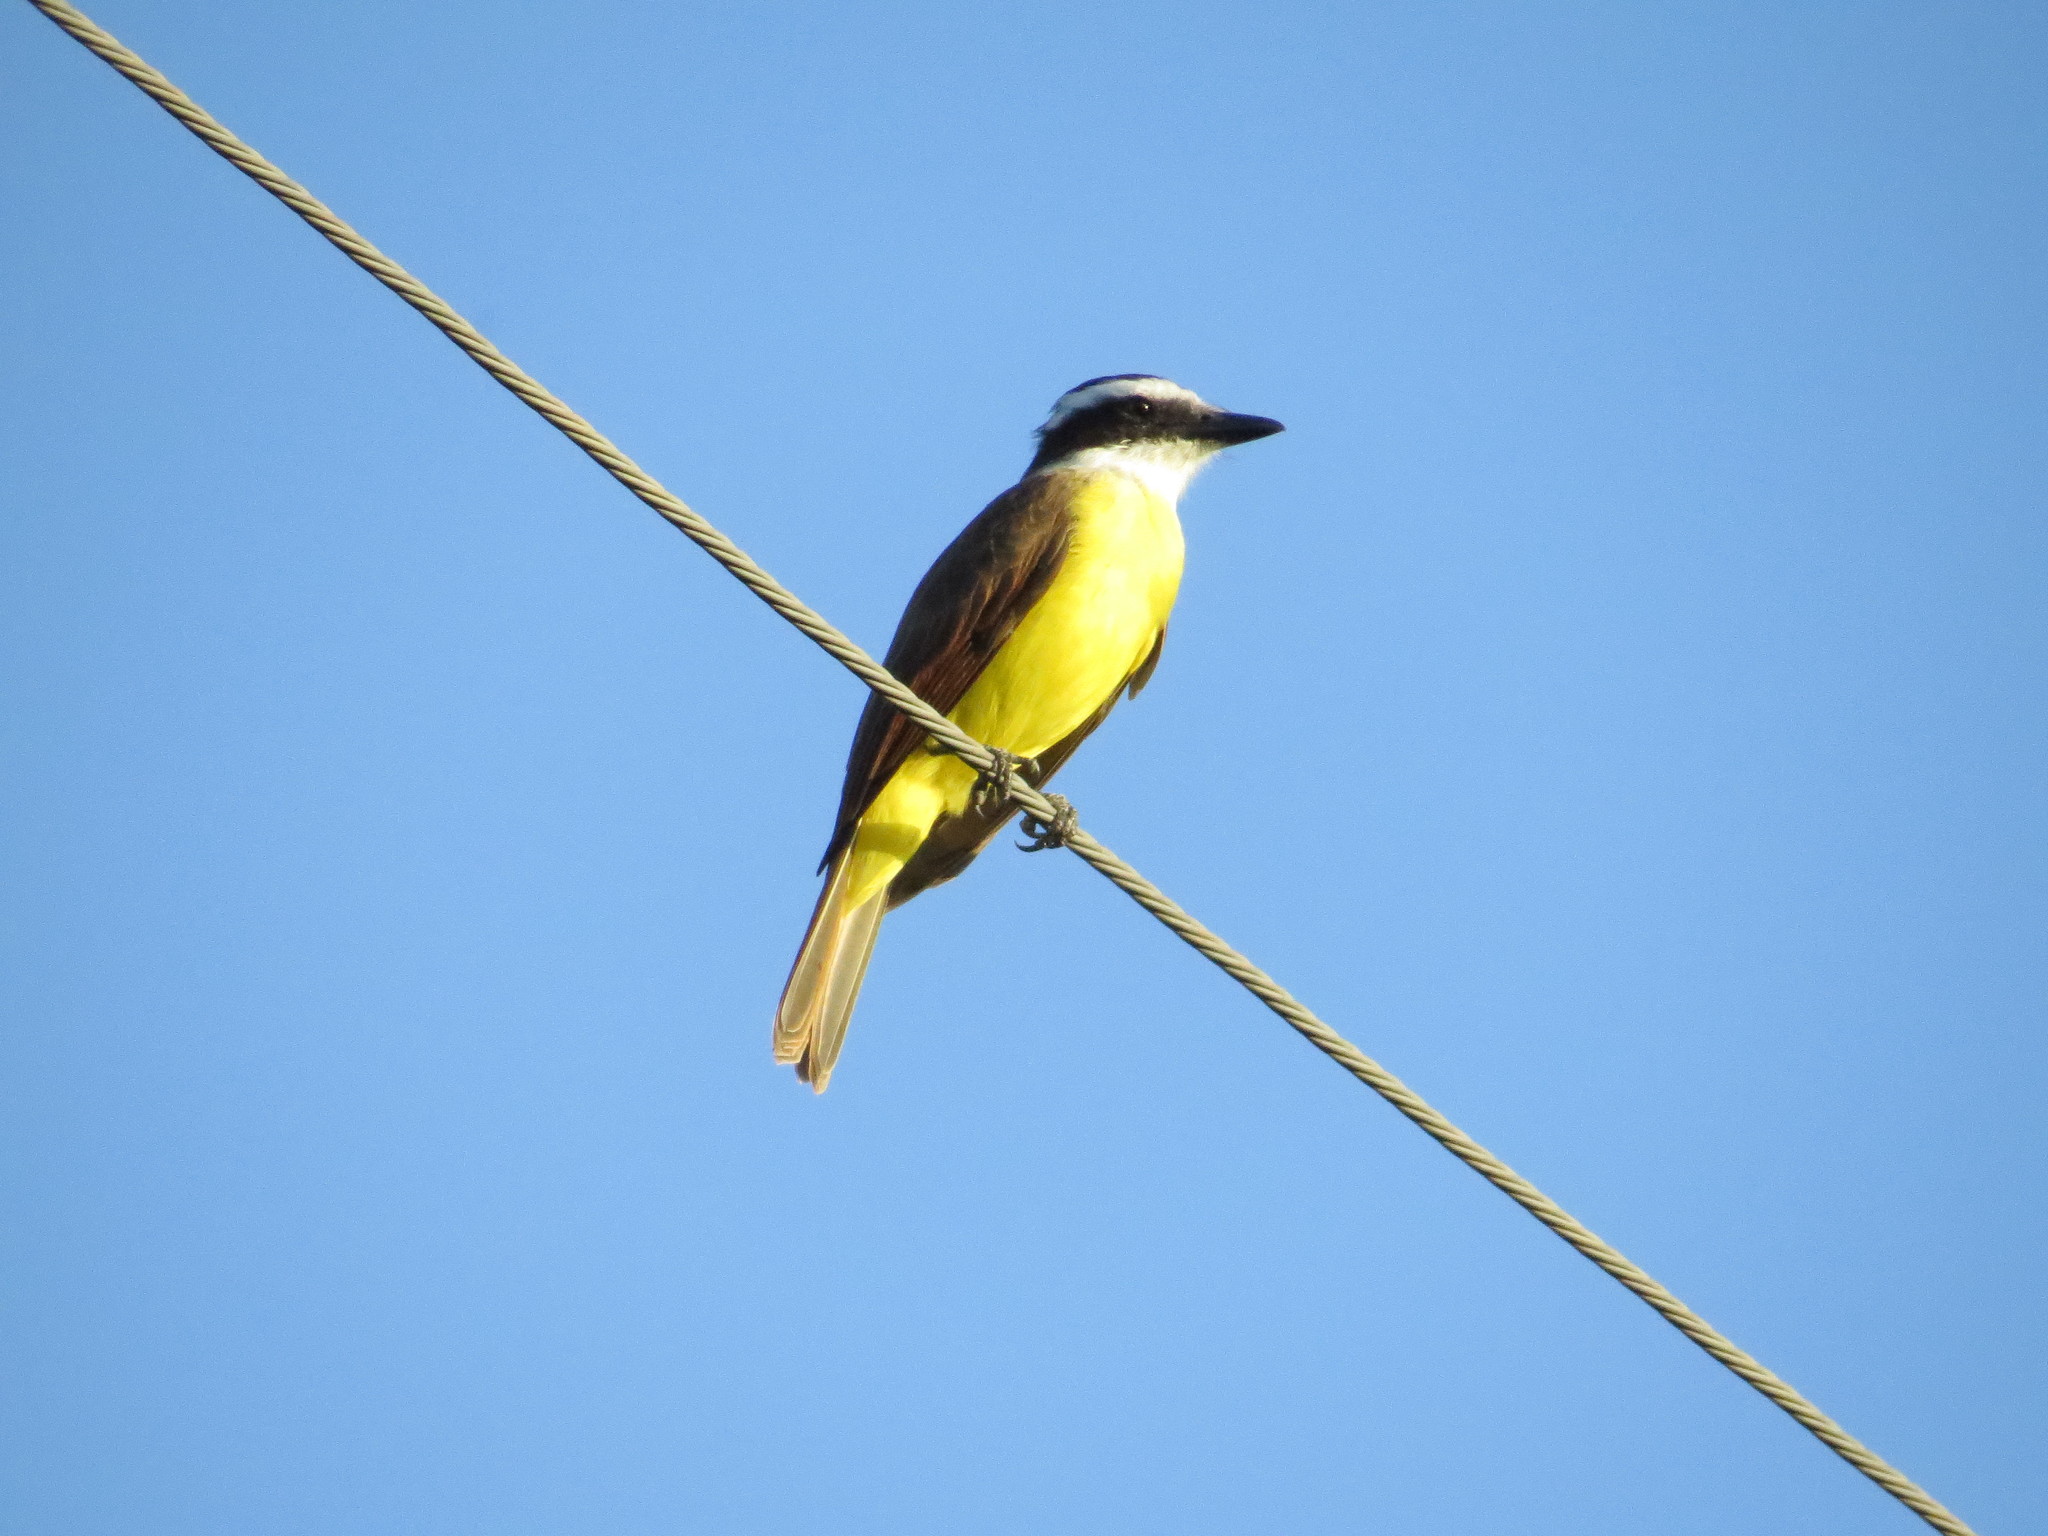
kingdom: Animalia
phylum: Chordata
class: Aves
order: Passeriformes
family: Tyrannidae
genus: Pitangus
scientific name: Pitangus sulphuratus
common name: Great kiskadee
